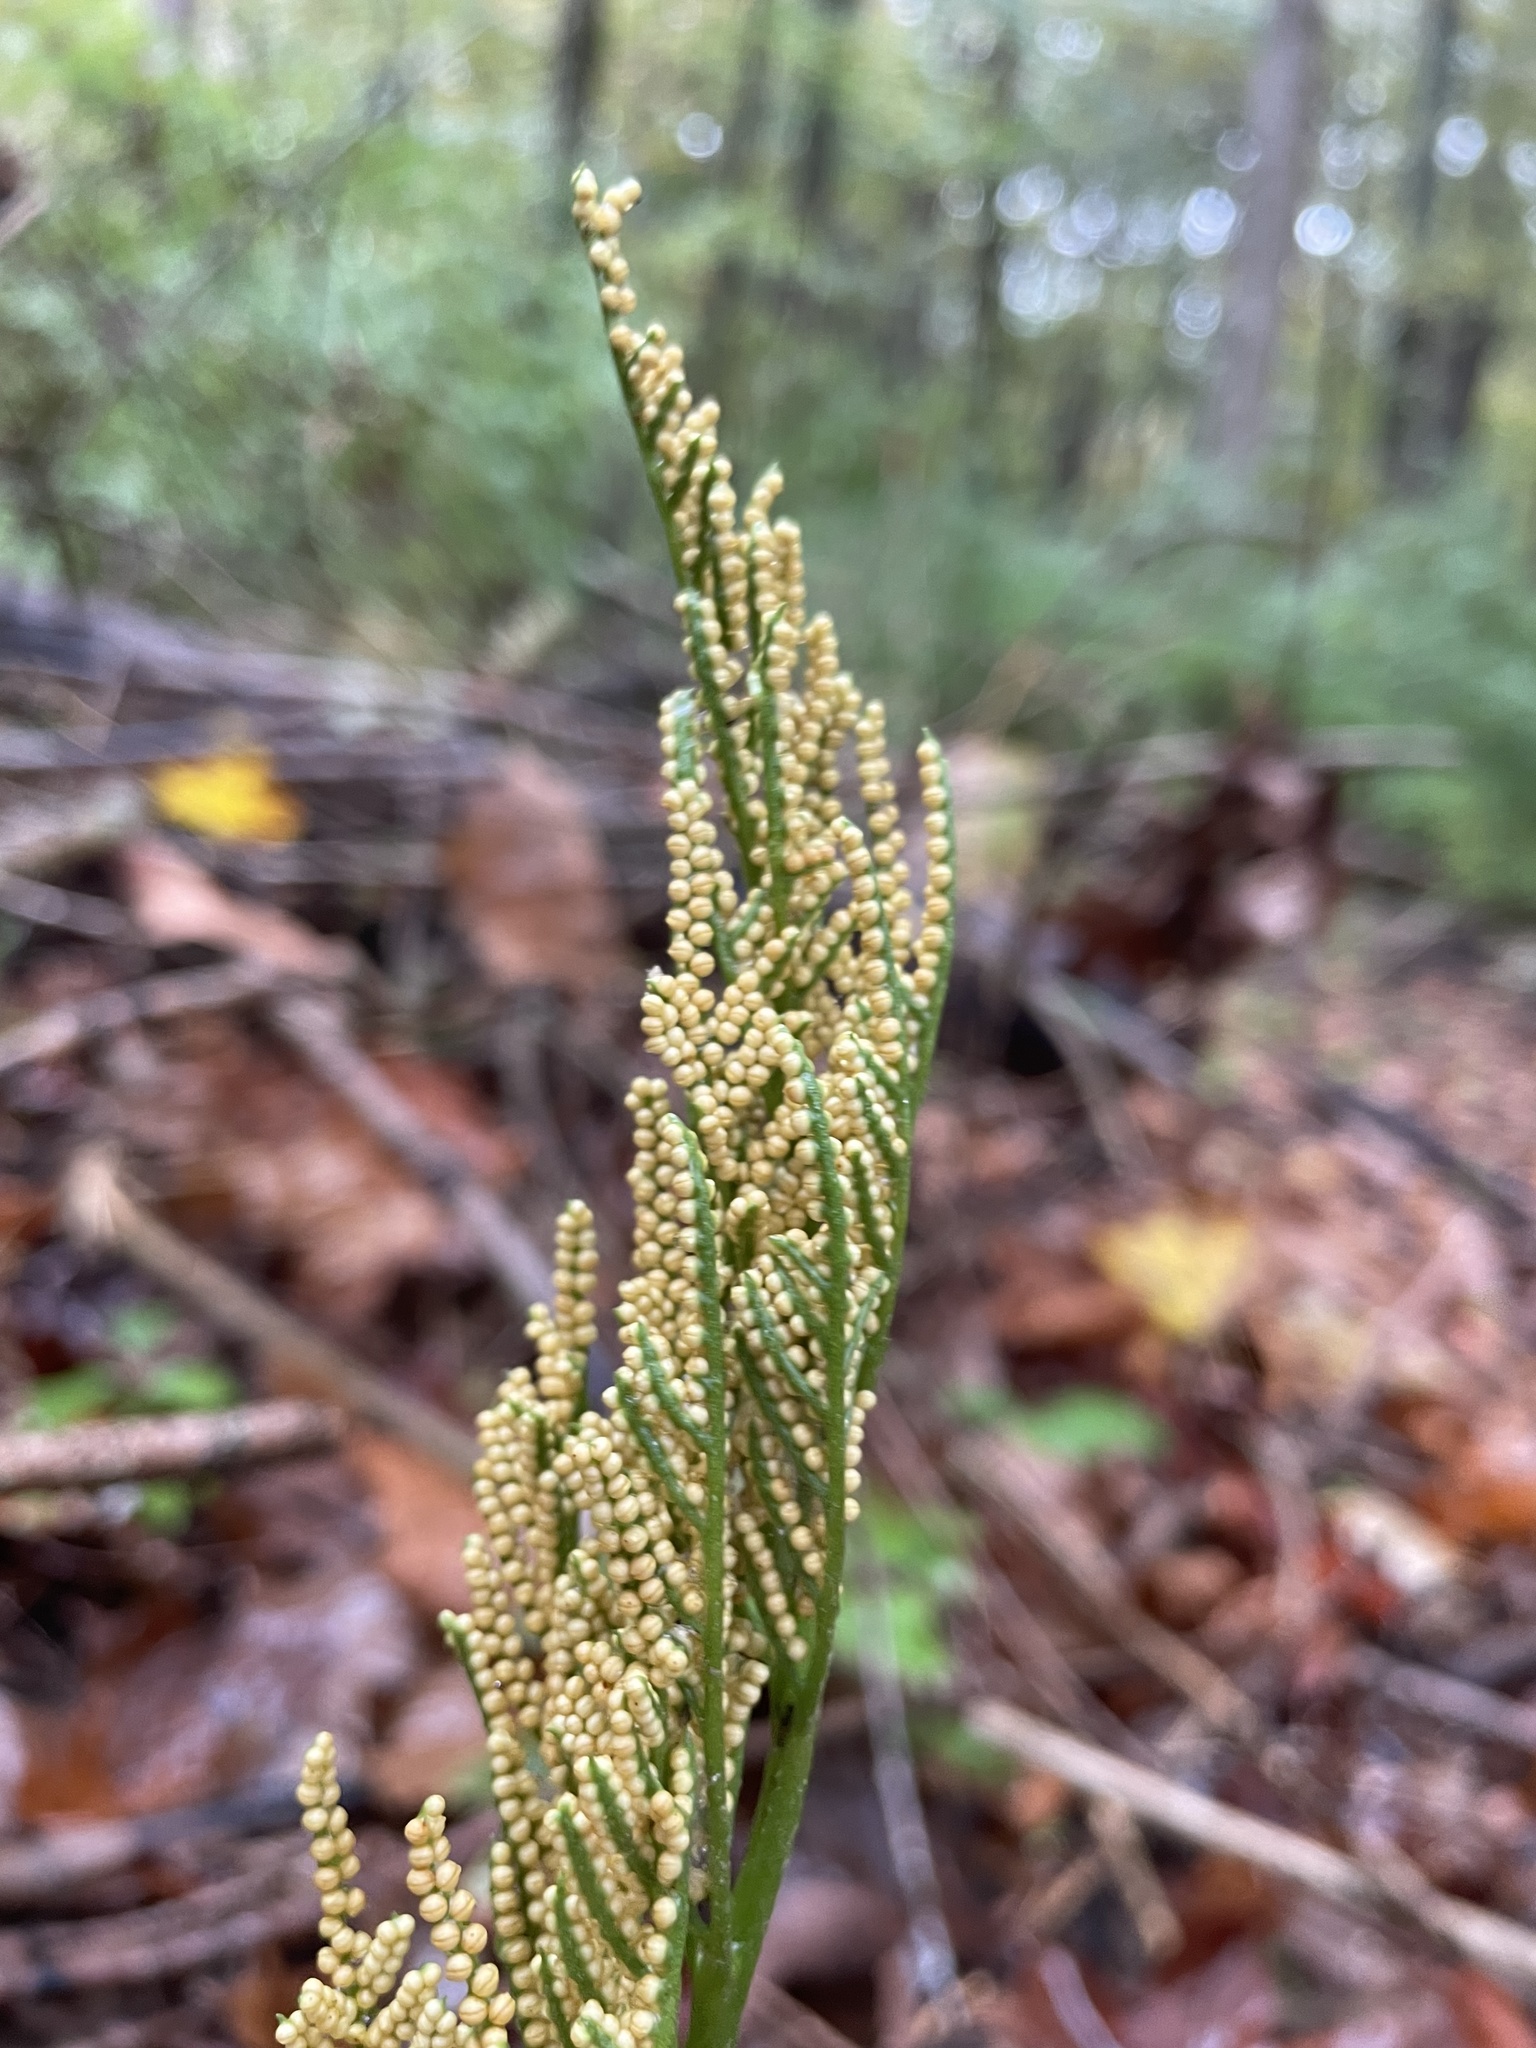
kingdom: Plantae
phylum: Tracheophyta
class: Polypodiopsida
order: Ophioglossales
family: Ophioglossaceae
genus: Sceptridium
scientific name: Sceptridium dissectum
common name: Cut-leaved grapefern
